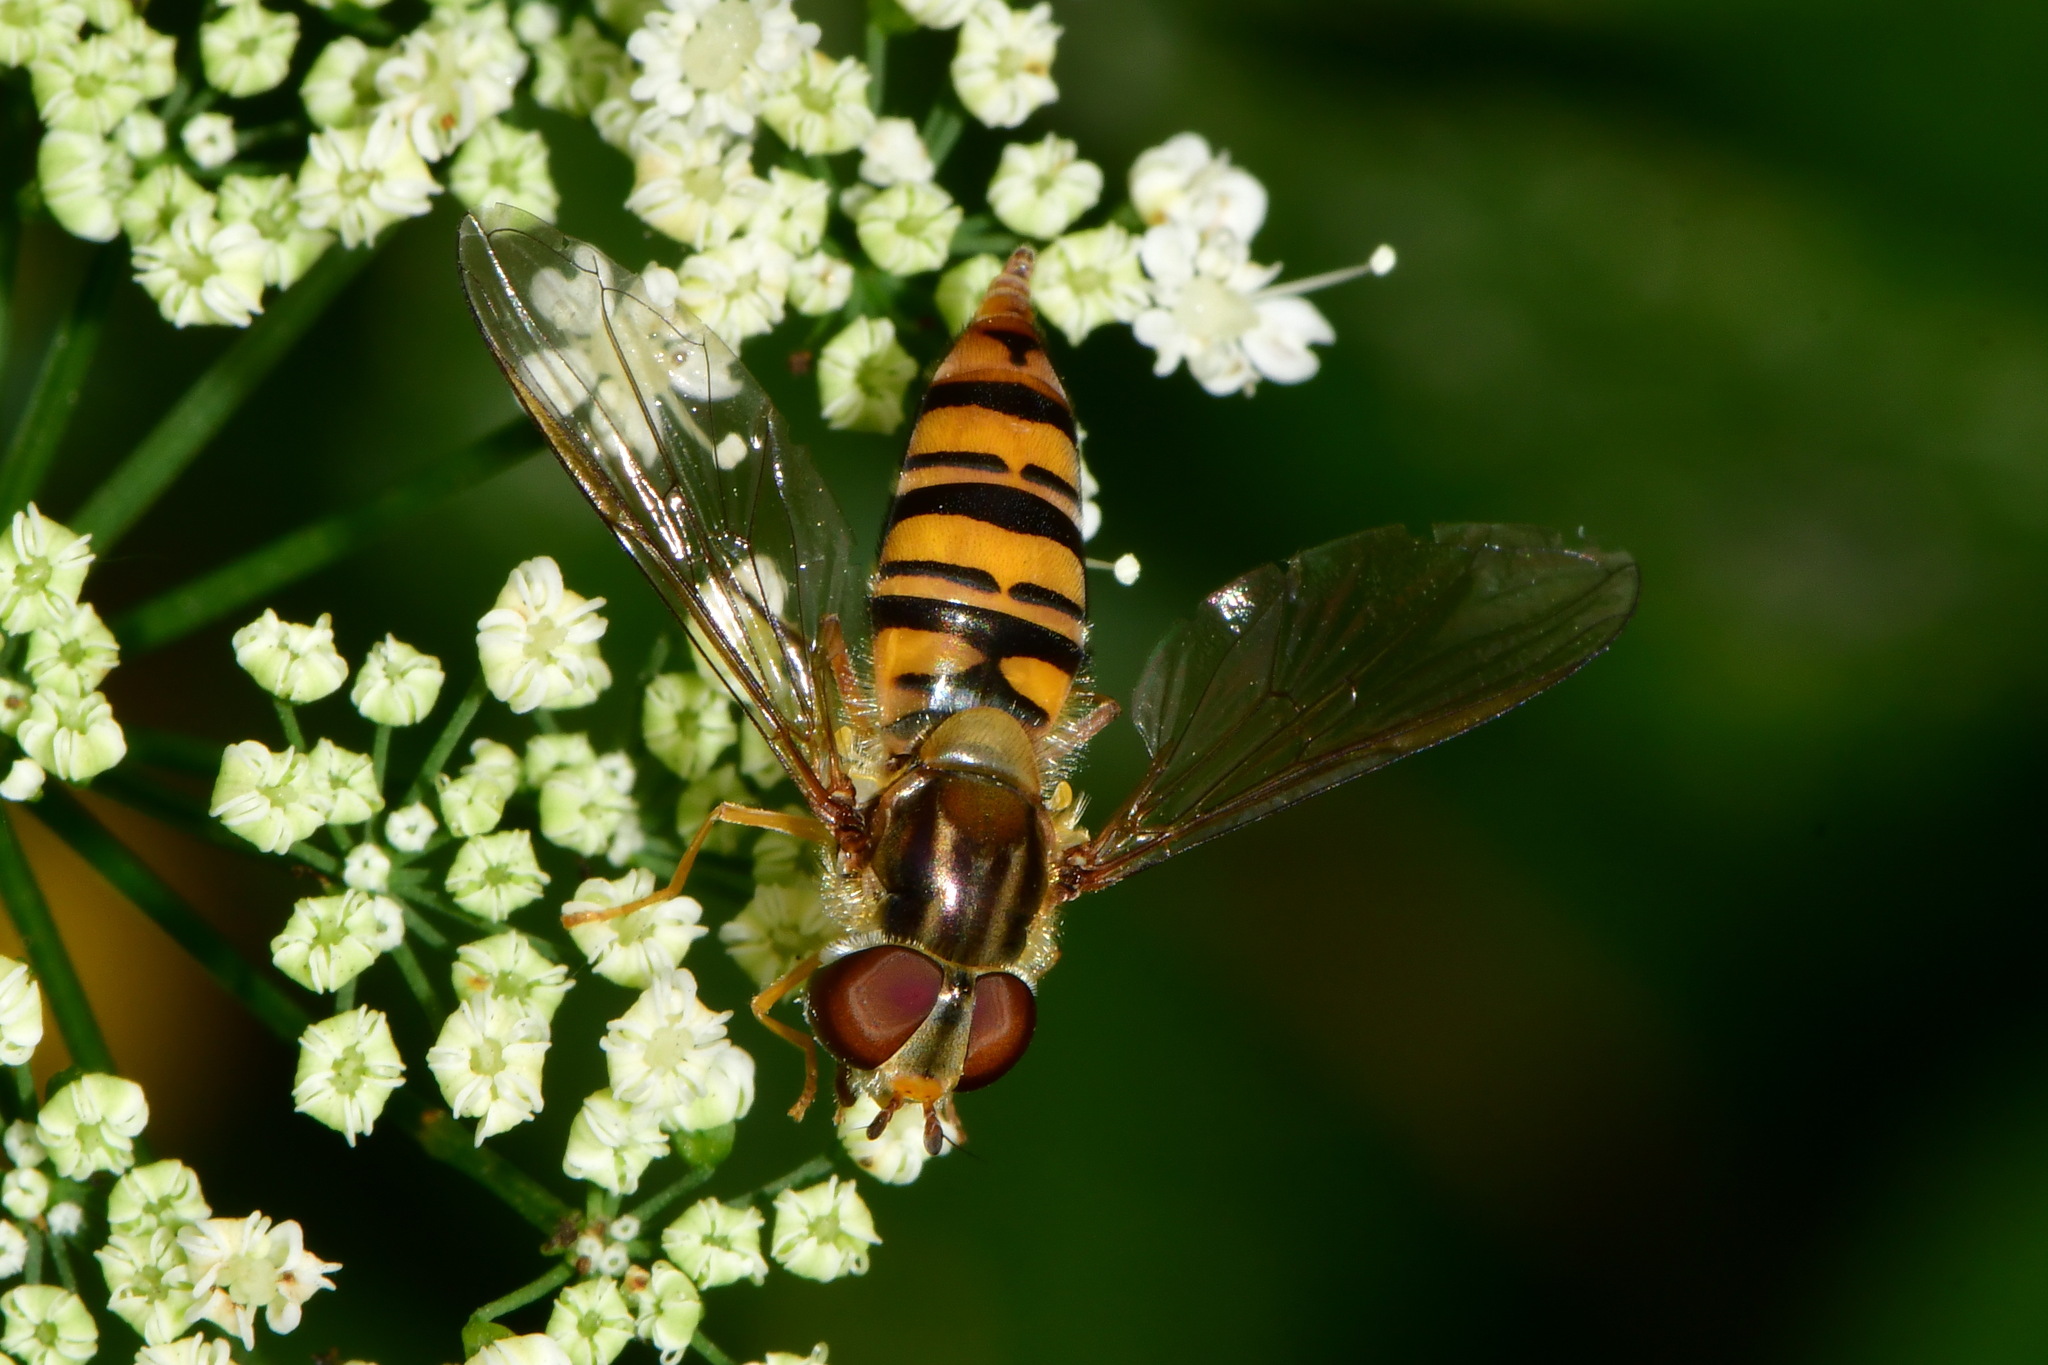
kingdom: Animalia
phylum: Arthropoda
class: Insecta
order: Diptera
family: Syrphidae
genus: Episyrphus
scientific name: Episyrphus balteatus
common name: Marmalade hoverfly
